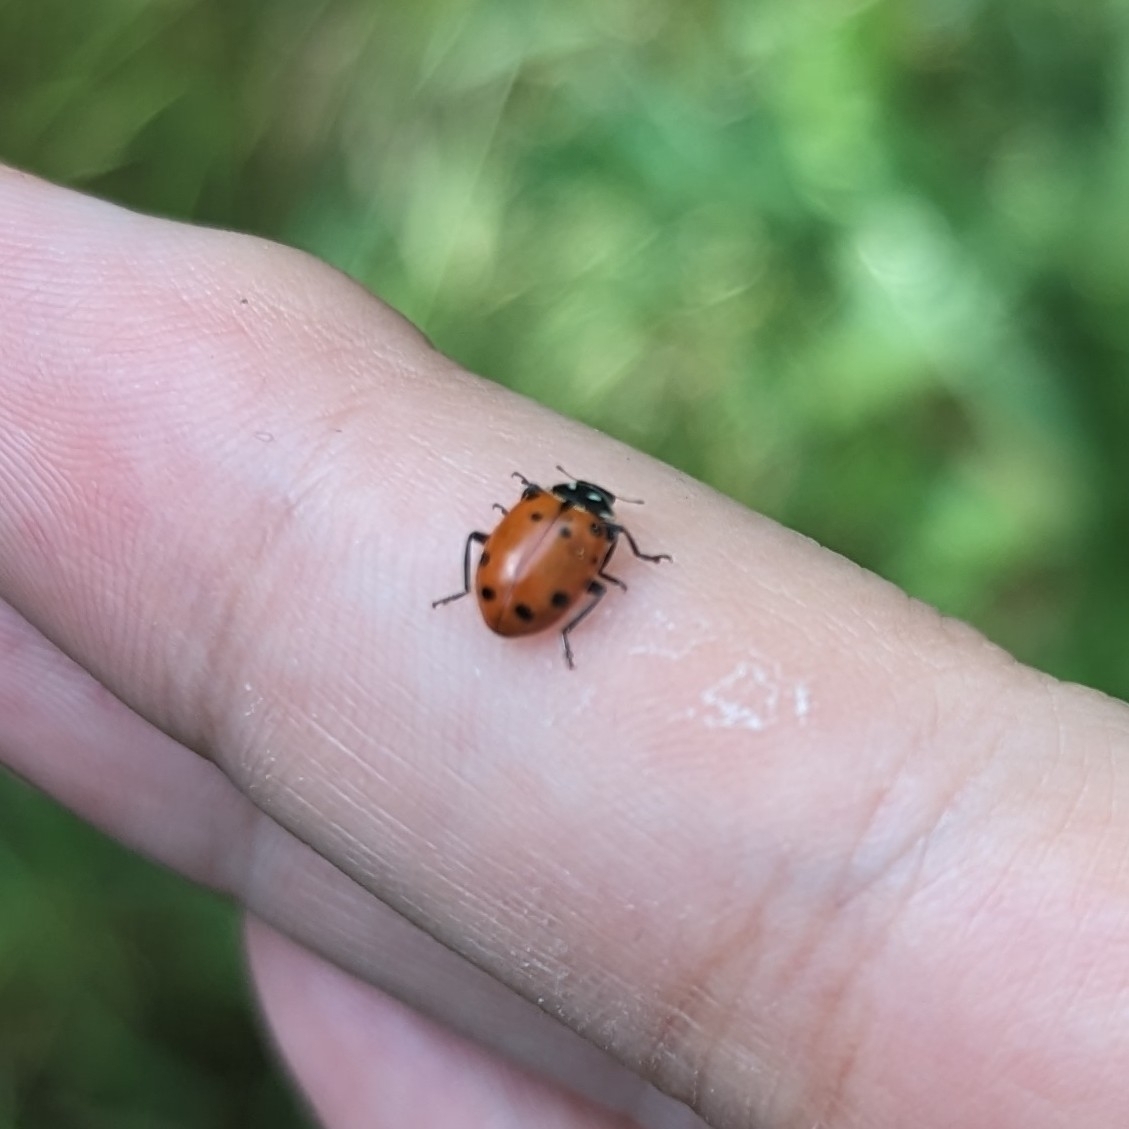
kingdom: Animalia
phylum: Arthropoda
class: Insecta
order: Coleoptera
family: Coccinellidae
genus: Hippodamia
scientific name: Hippodamia convergens
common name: Convergent lady beetle
